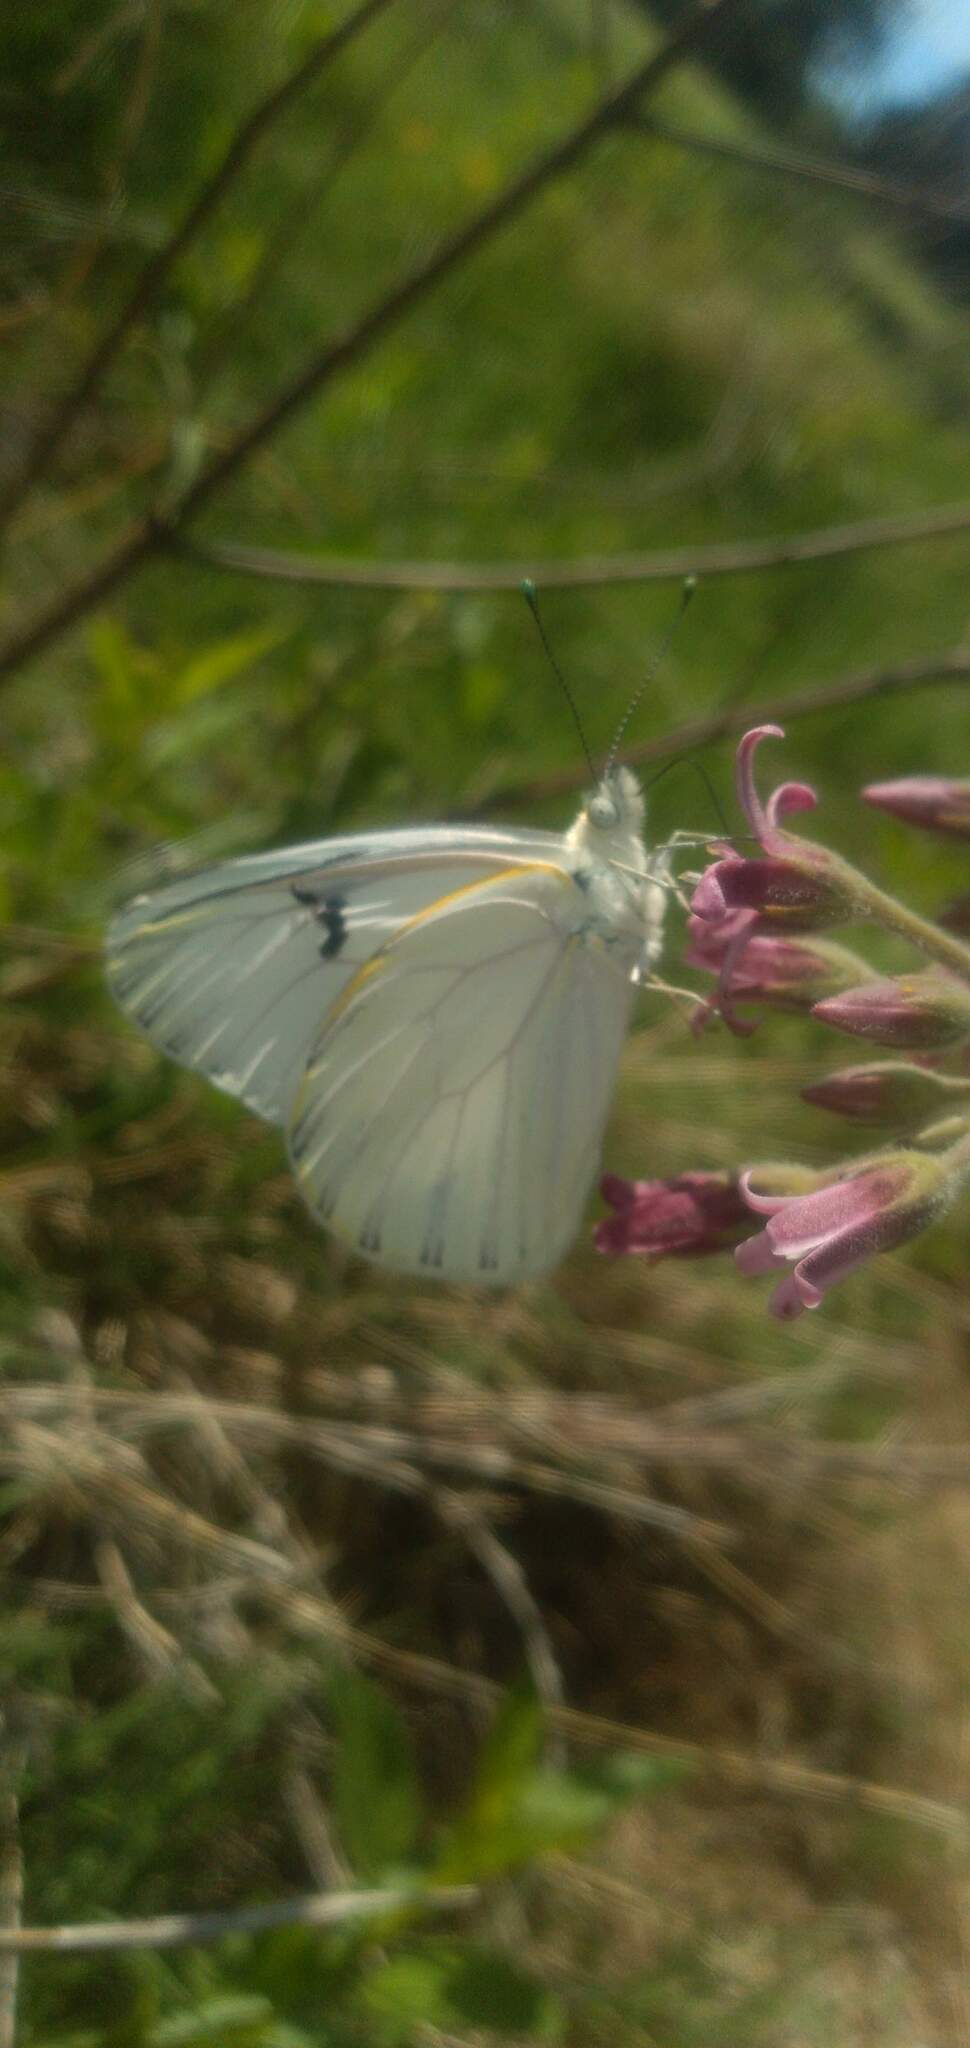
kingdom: Animalia
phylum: Arthropoda
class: Insecta
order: Lepidoptera
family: Pieridae
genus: Tatochila
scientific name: Tatochila mercedis
